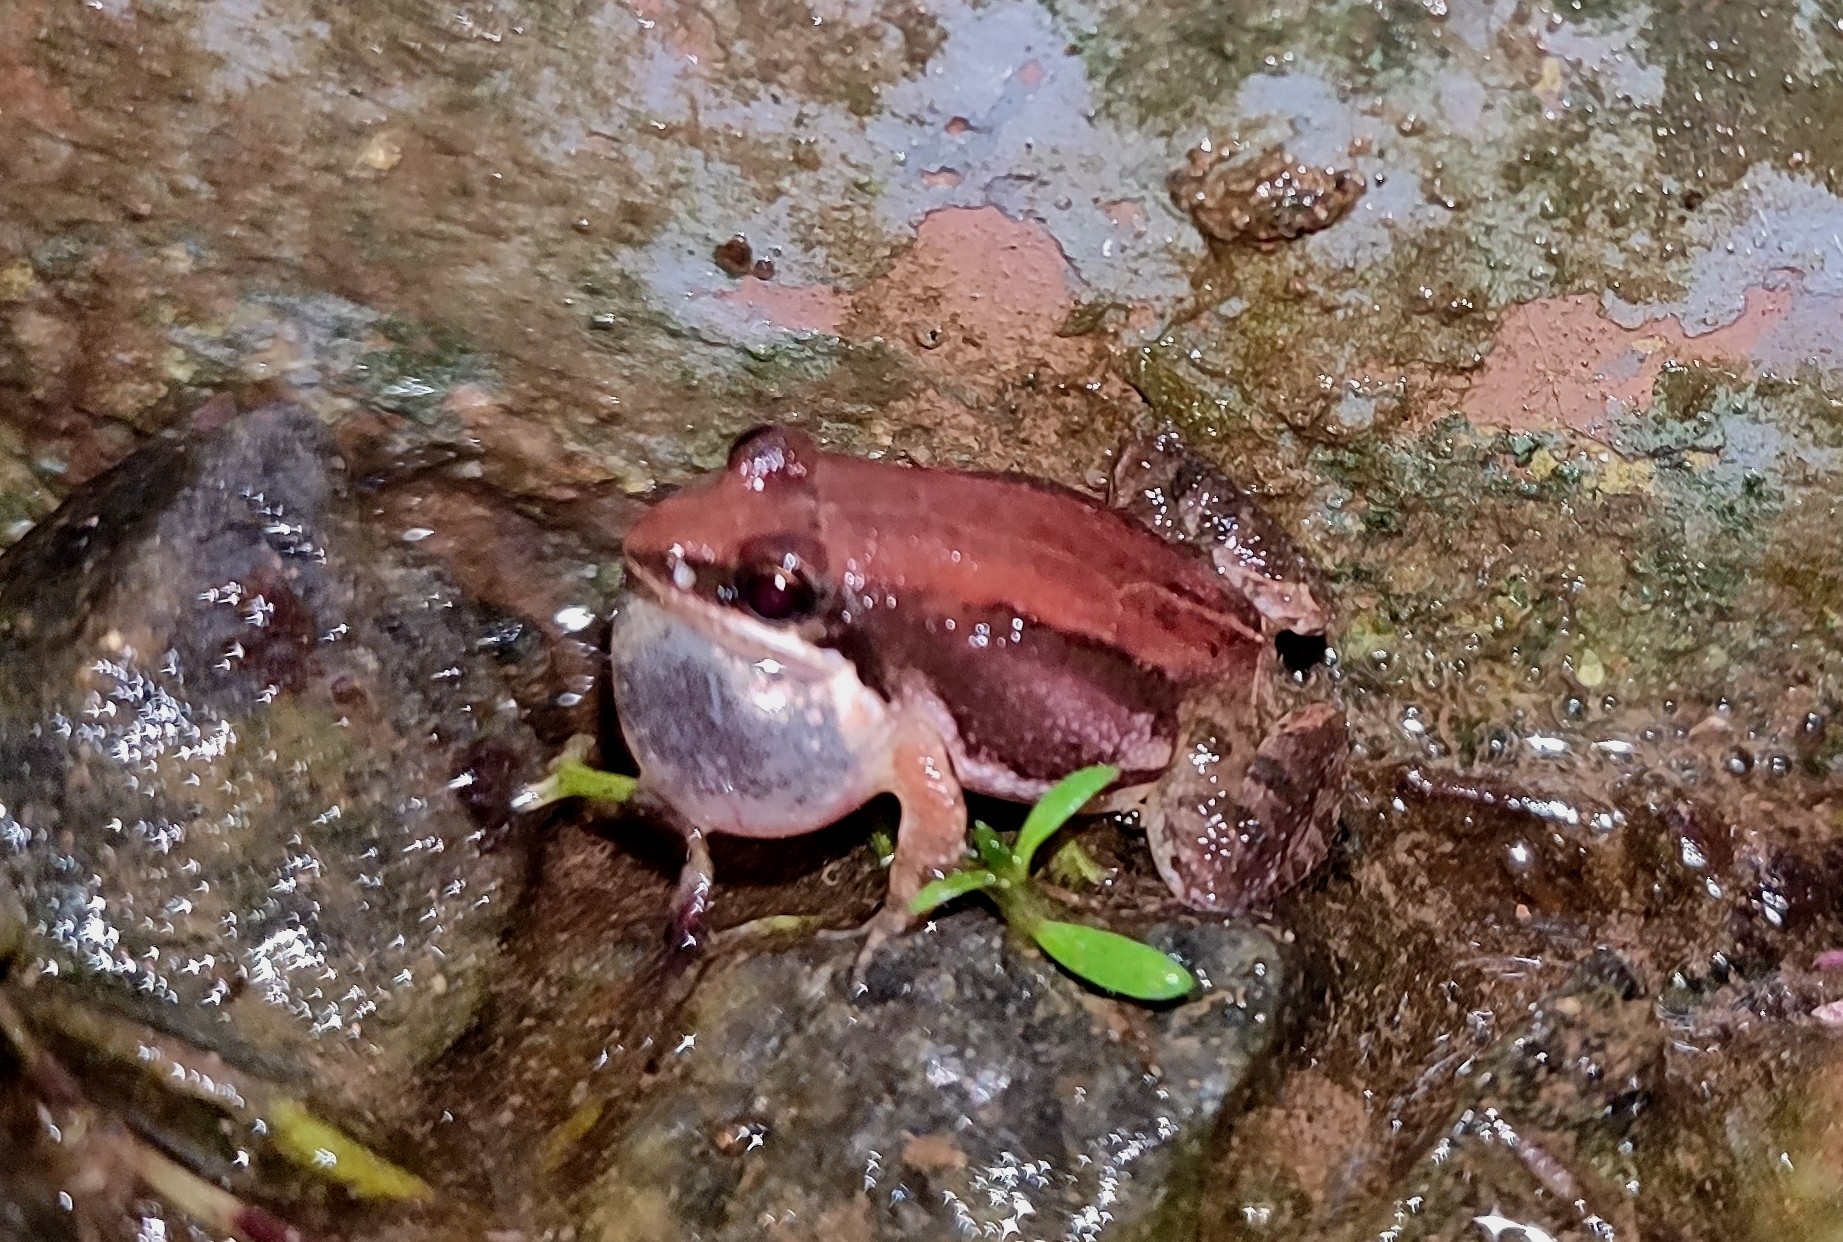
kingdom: Animalia
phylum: Chordata
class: Amphibia
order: Anura
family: Dicroglossidae
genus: Minervarya
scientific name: Minervarya sahyadris
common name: Minevarya frog
